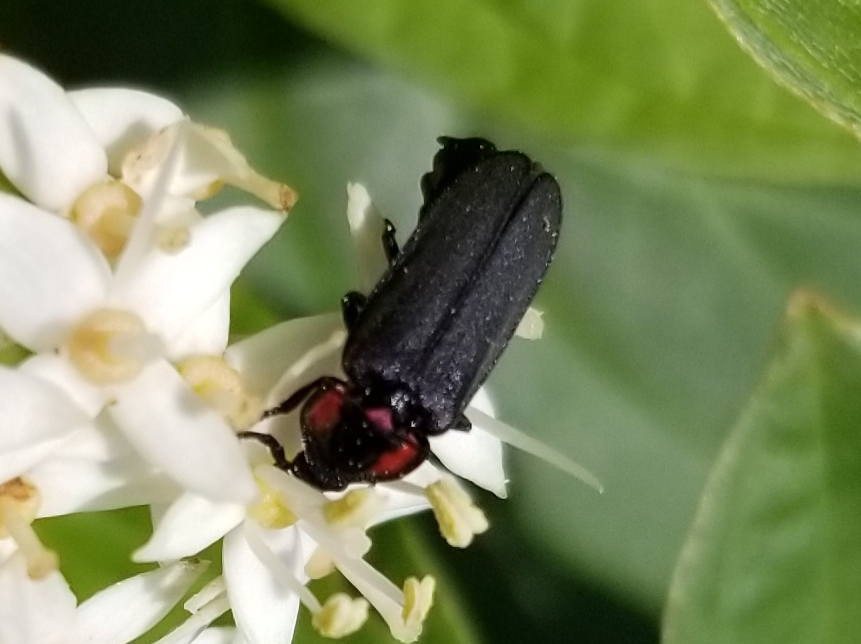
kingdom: Animalia
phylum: Arthropoda
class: Insecta
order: Coleoptera
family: Lampyridae
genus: Pyropyga
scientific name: Pyropyga nigricans
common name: Dark firefly
